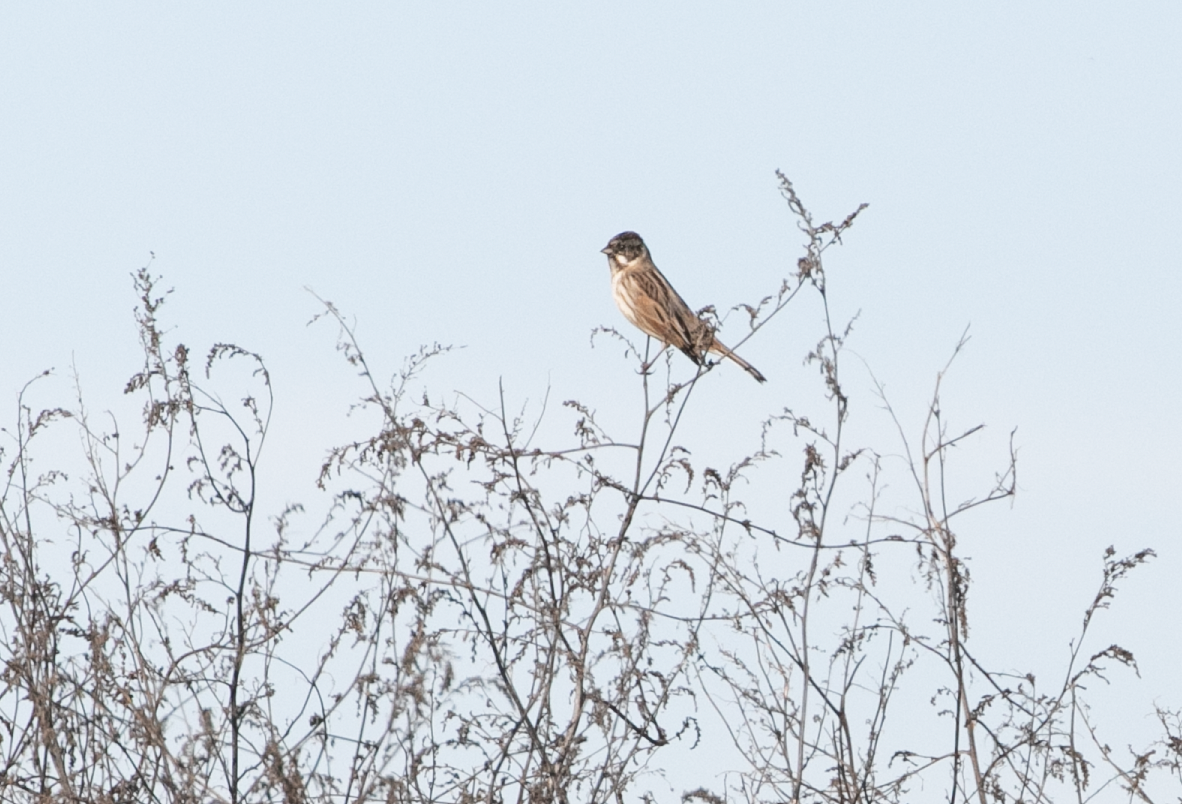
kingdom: Animalia
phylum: Chordata
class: Aves
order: Passeriformes
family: Emberizidae
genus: Emberiza
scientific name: Emberiza schoeniclus
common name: Reed bunting
